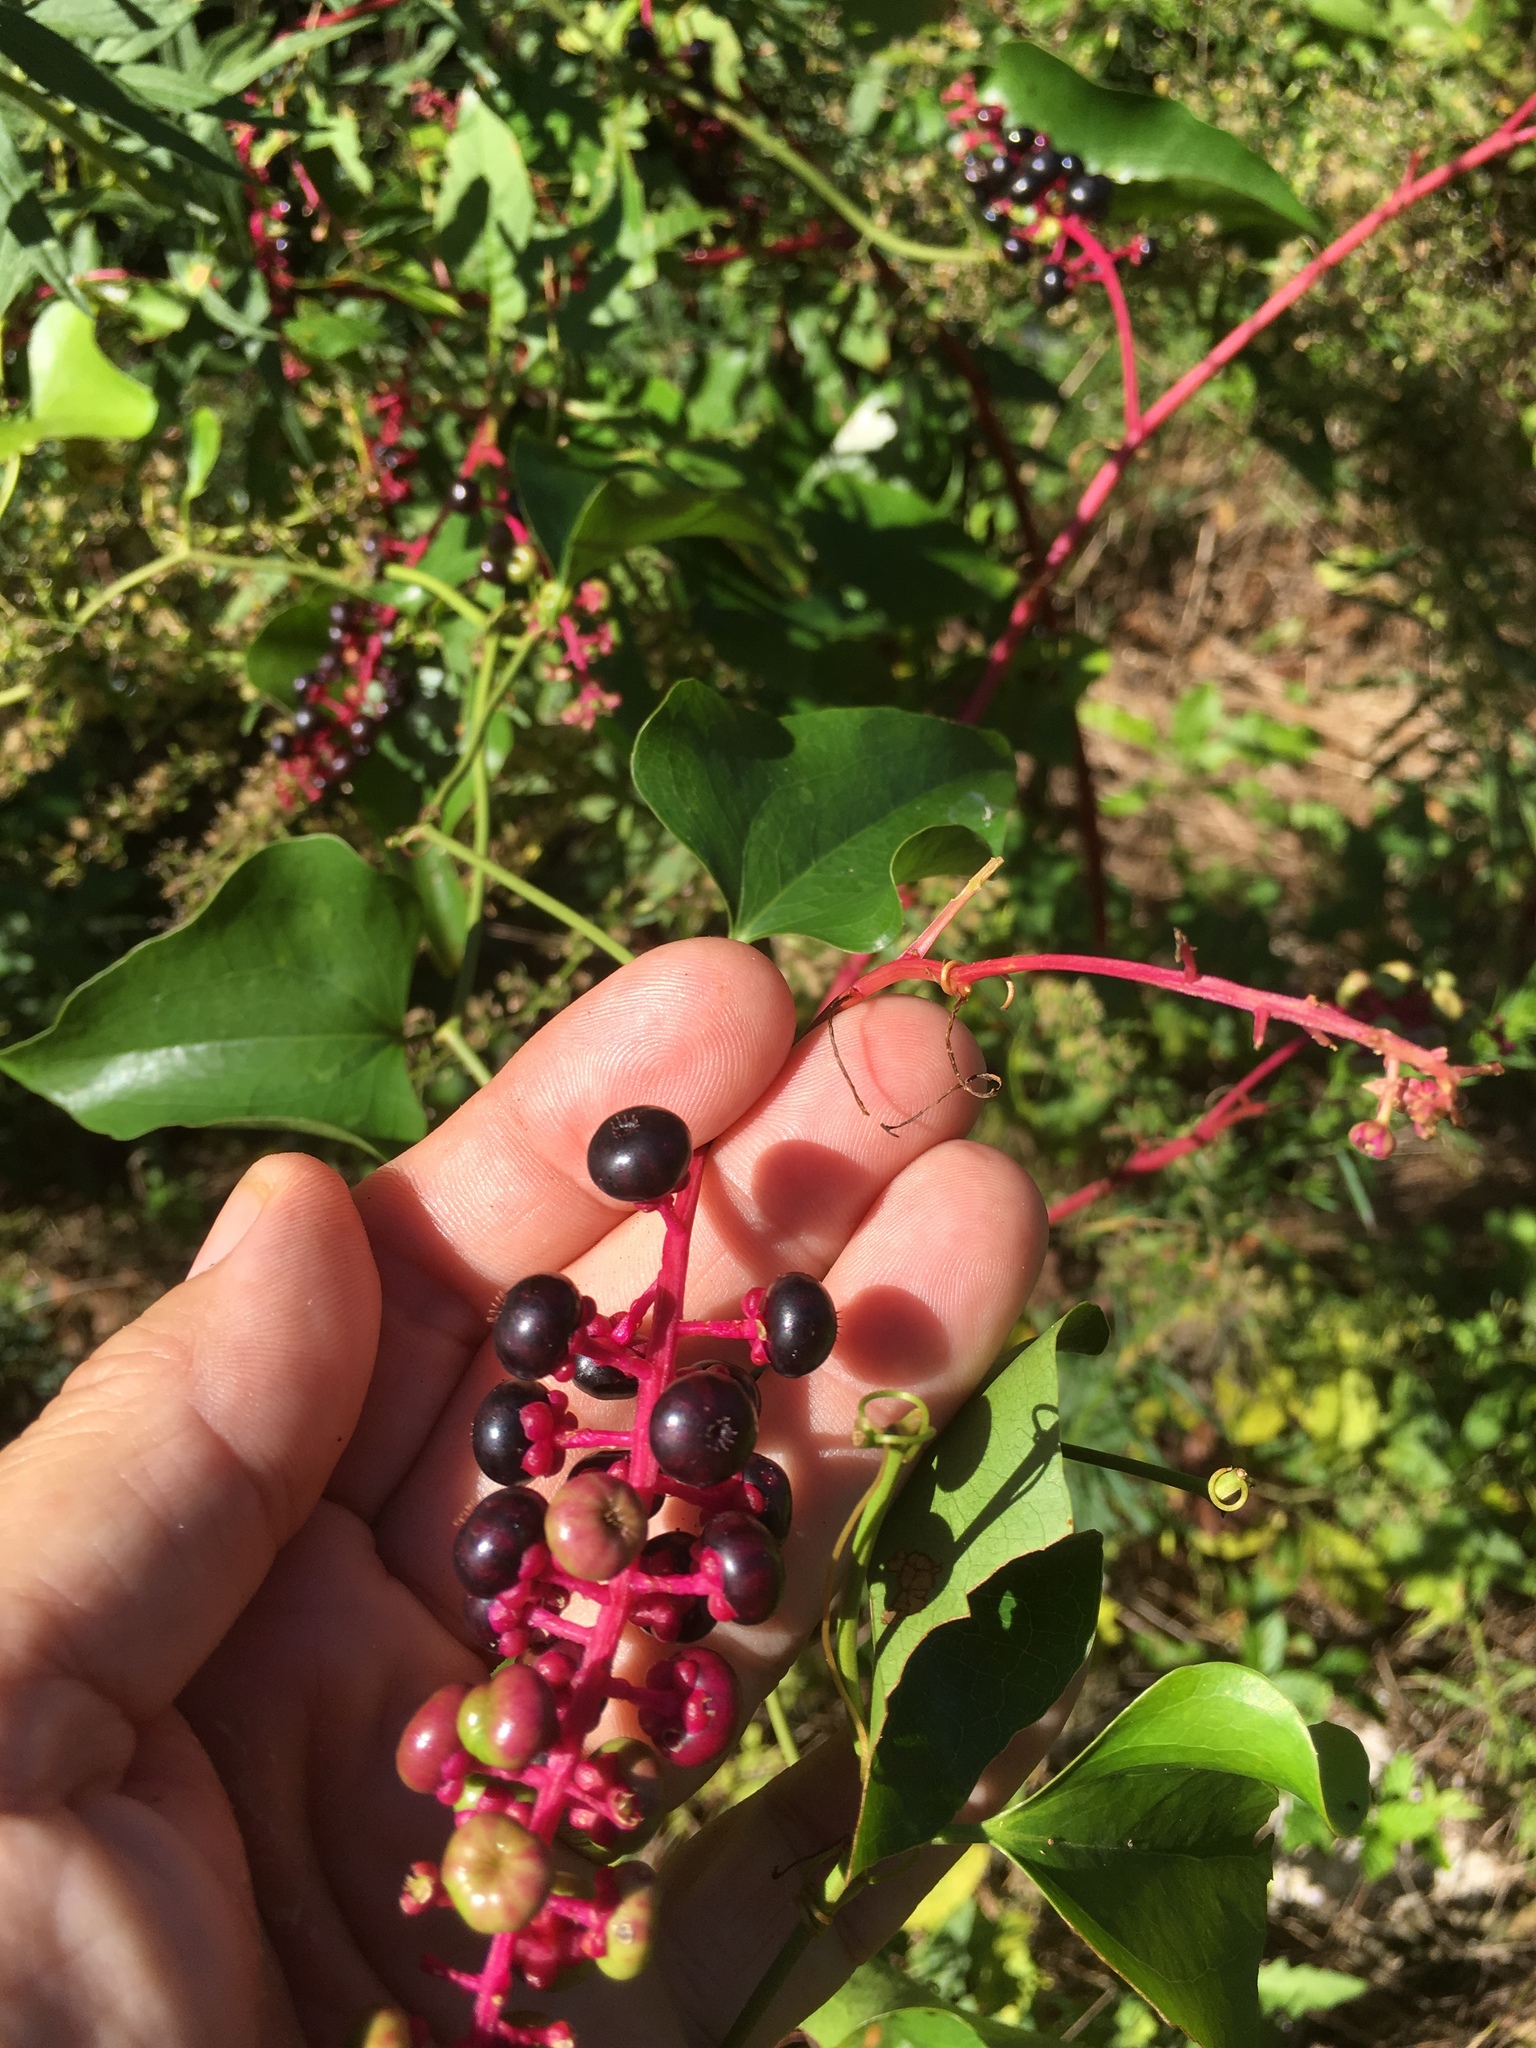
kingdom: Plantae
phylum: Tracheophyta
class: Magnoliopsida
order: Caryophyllales
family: Phytolaccaceae
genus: Phytolacca
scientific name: Phytolacca americana
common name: American pokeweed
